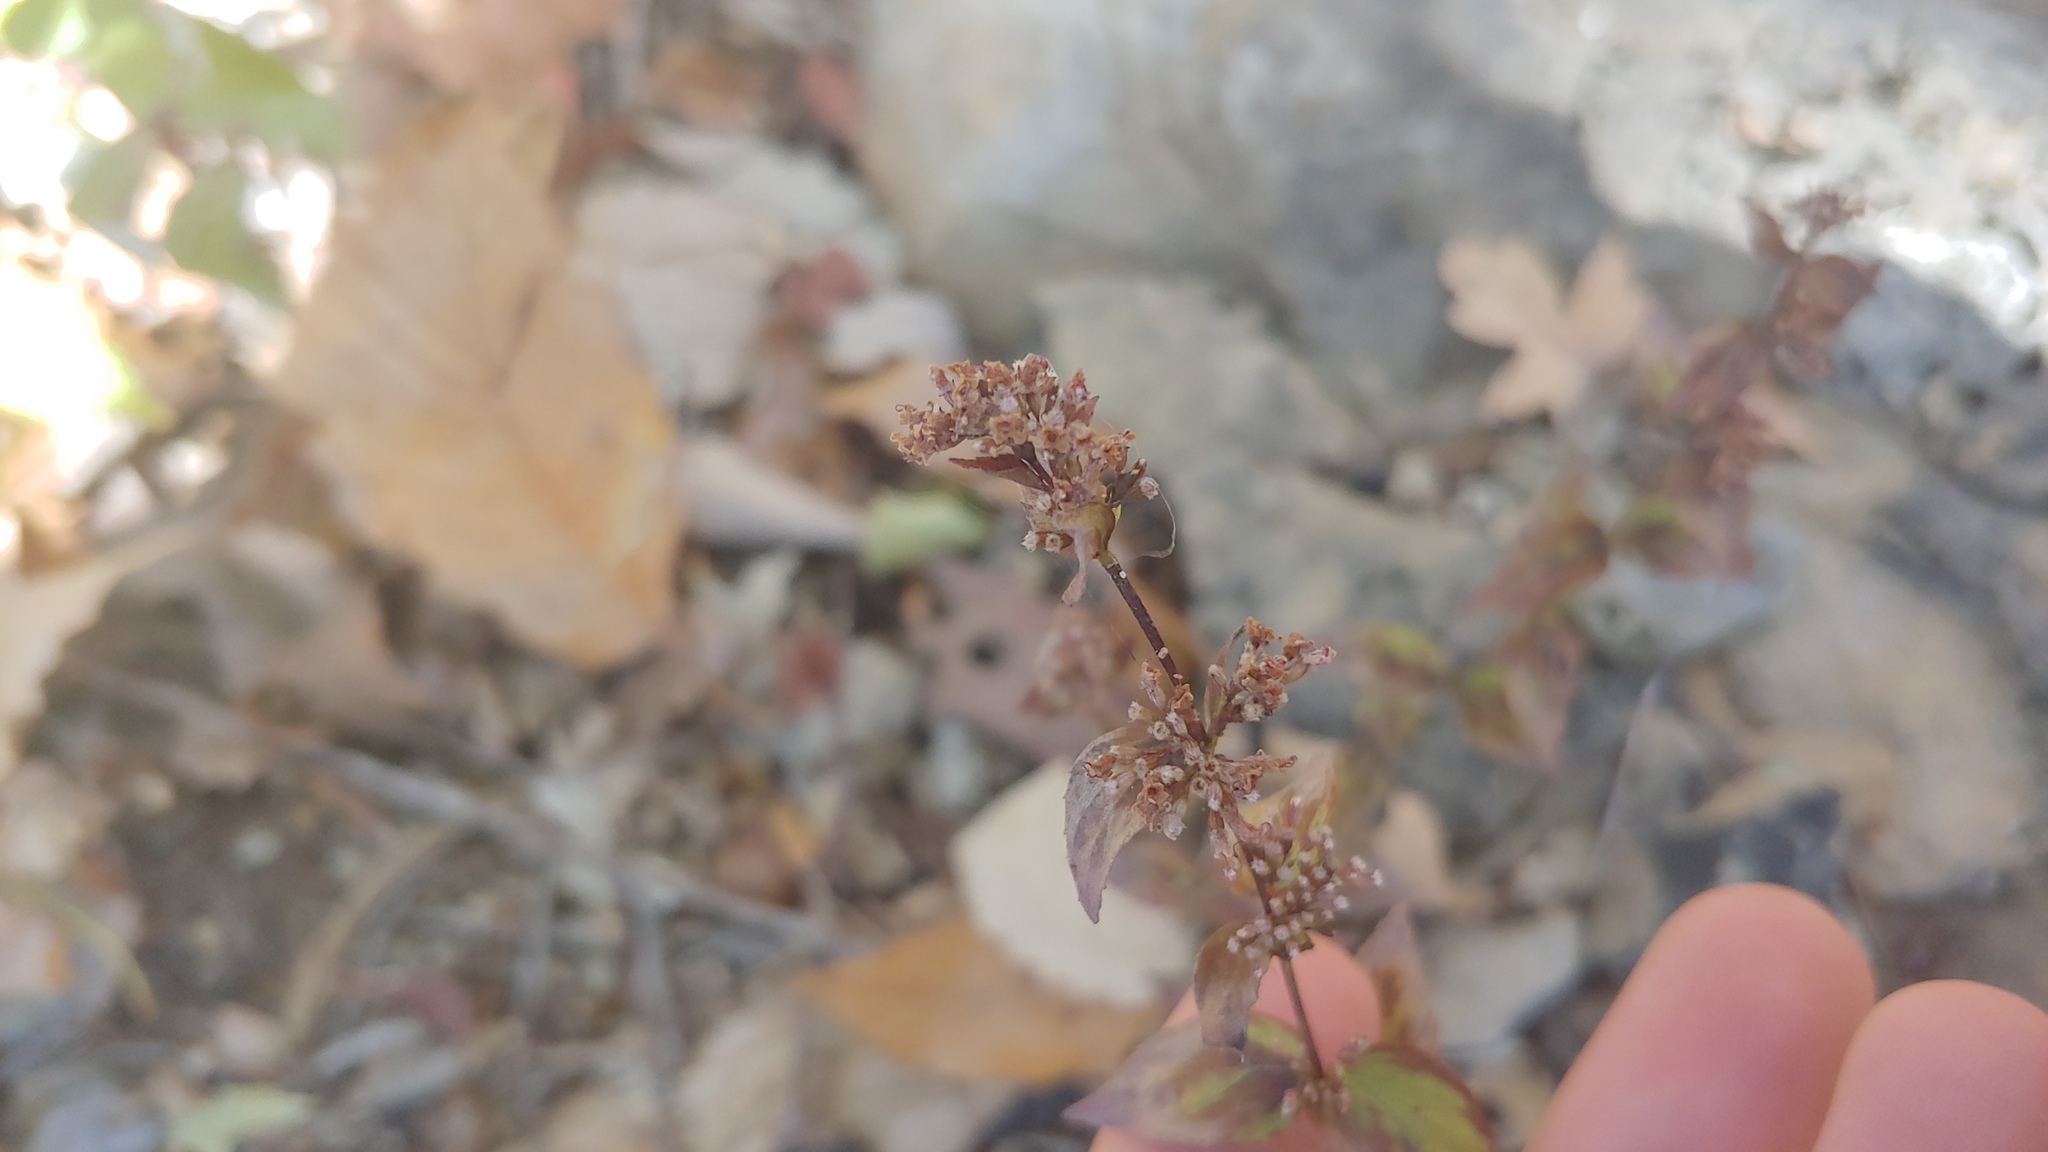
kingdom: Plantae
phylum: Tracheophyta
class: Magnoliopsida
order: Lamiales
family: Lamiaceae
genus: Cunila
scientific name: Cunila origanoides
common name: American dittany
